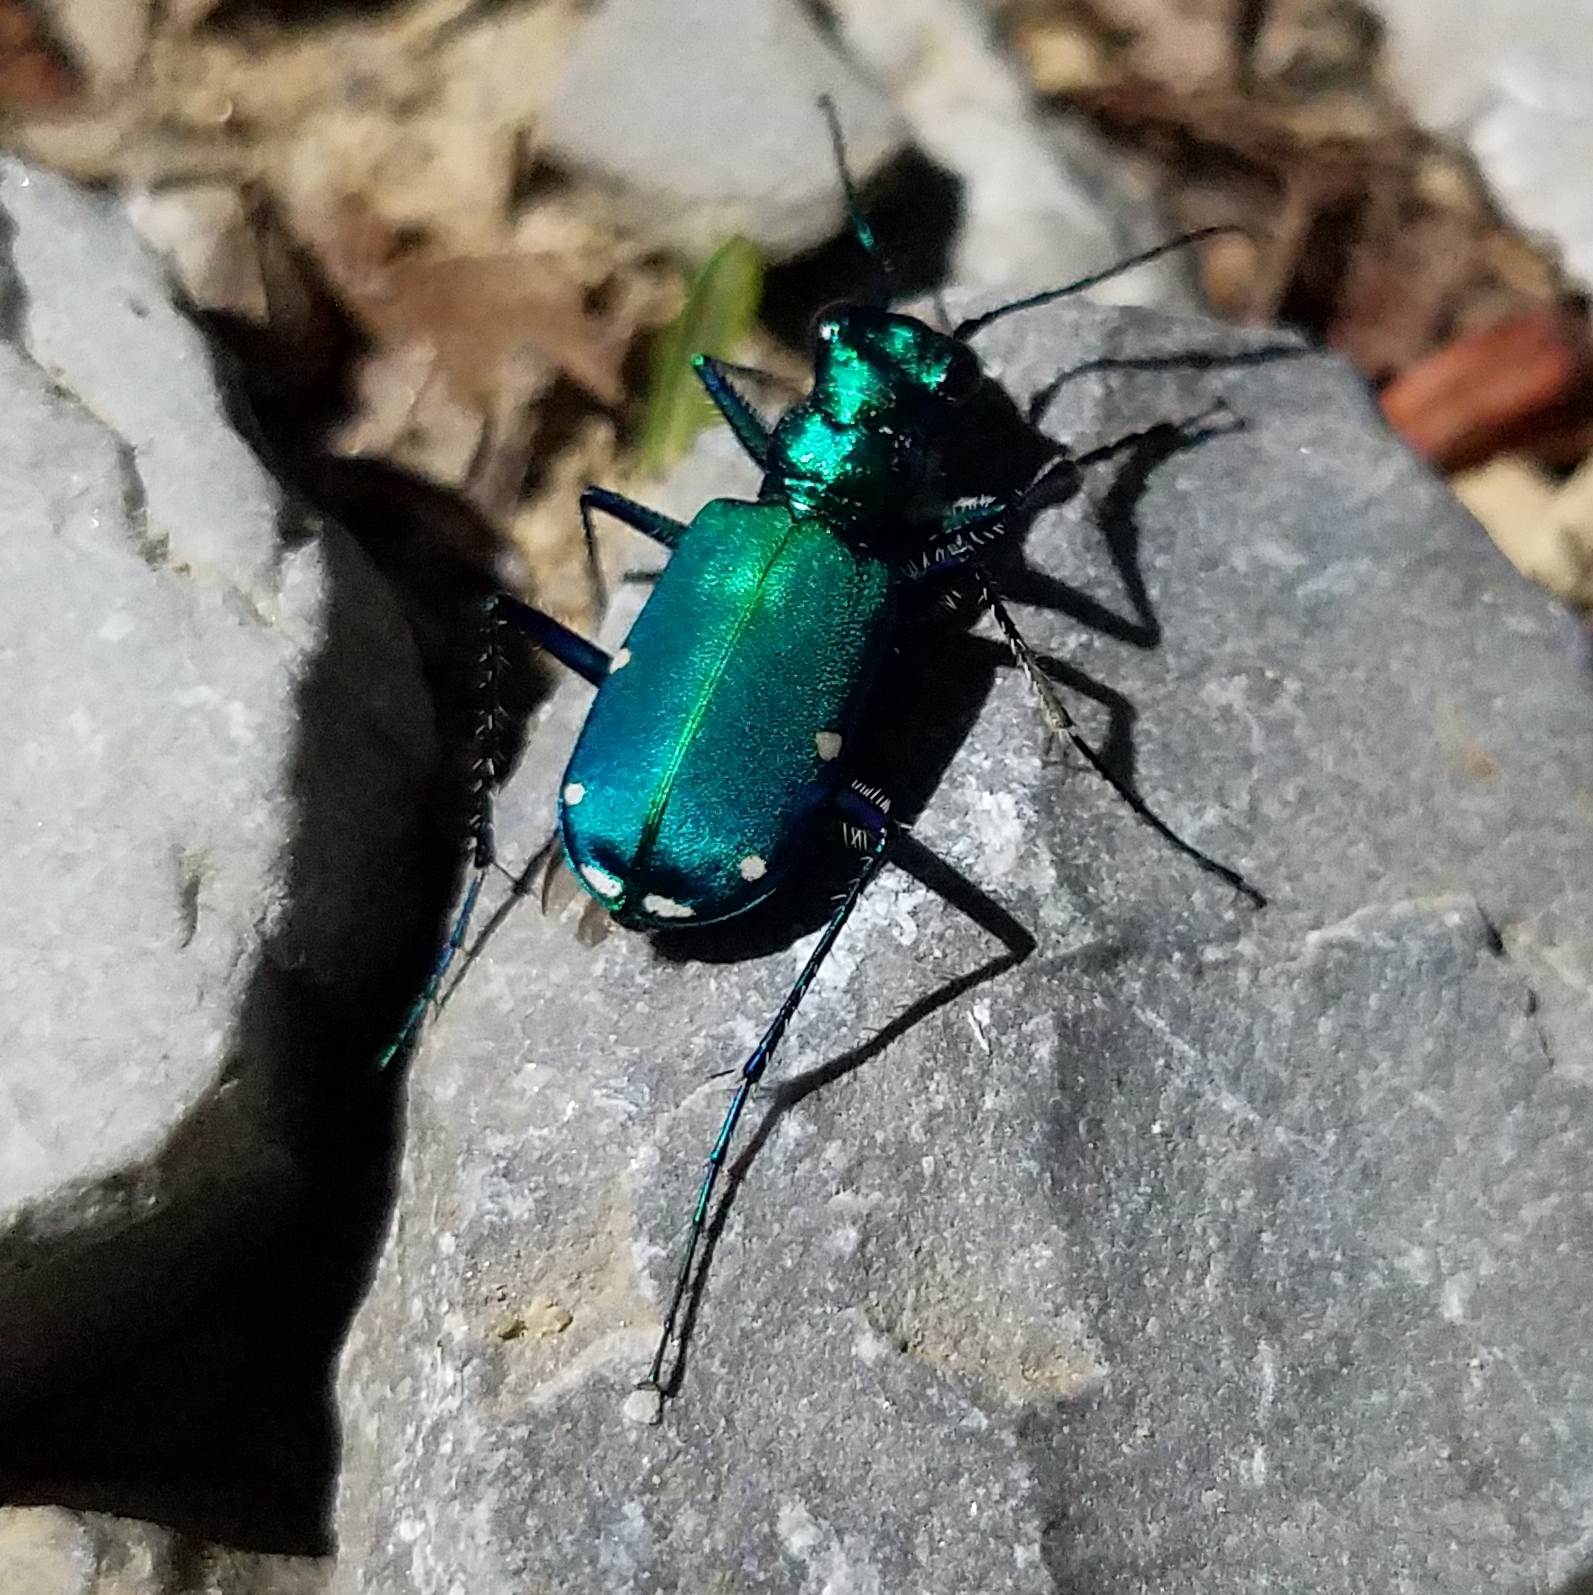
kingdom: Animalia
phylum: Arthropoda
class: Insecta
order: Coleoptera
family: Carabidae
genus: Cicindela
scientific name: Cicindela sexguttata
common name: Six-spotted tiger beetle
